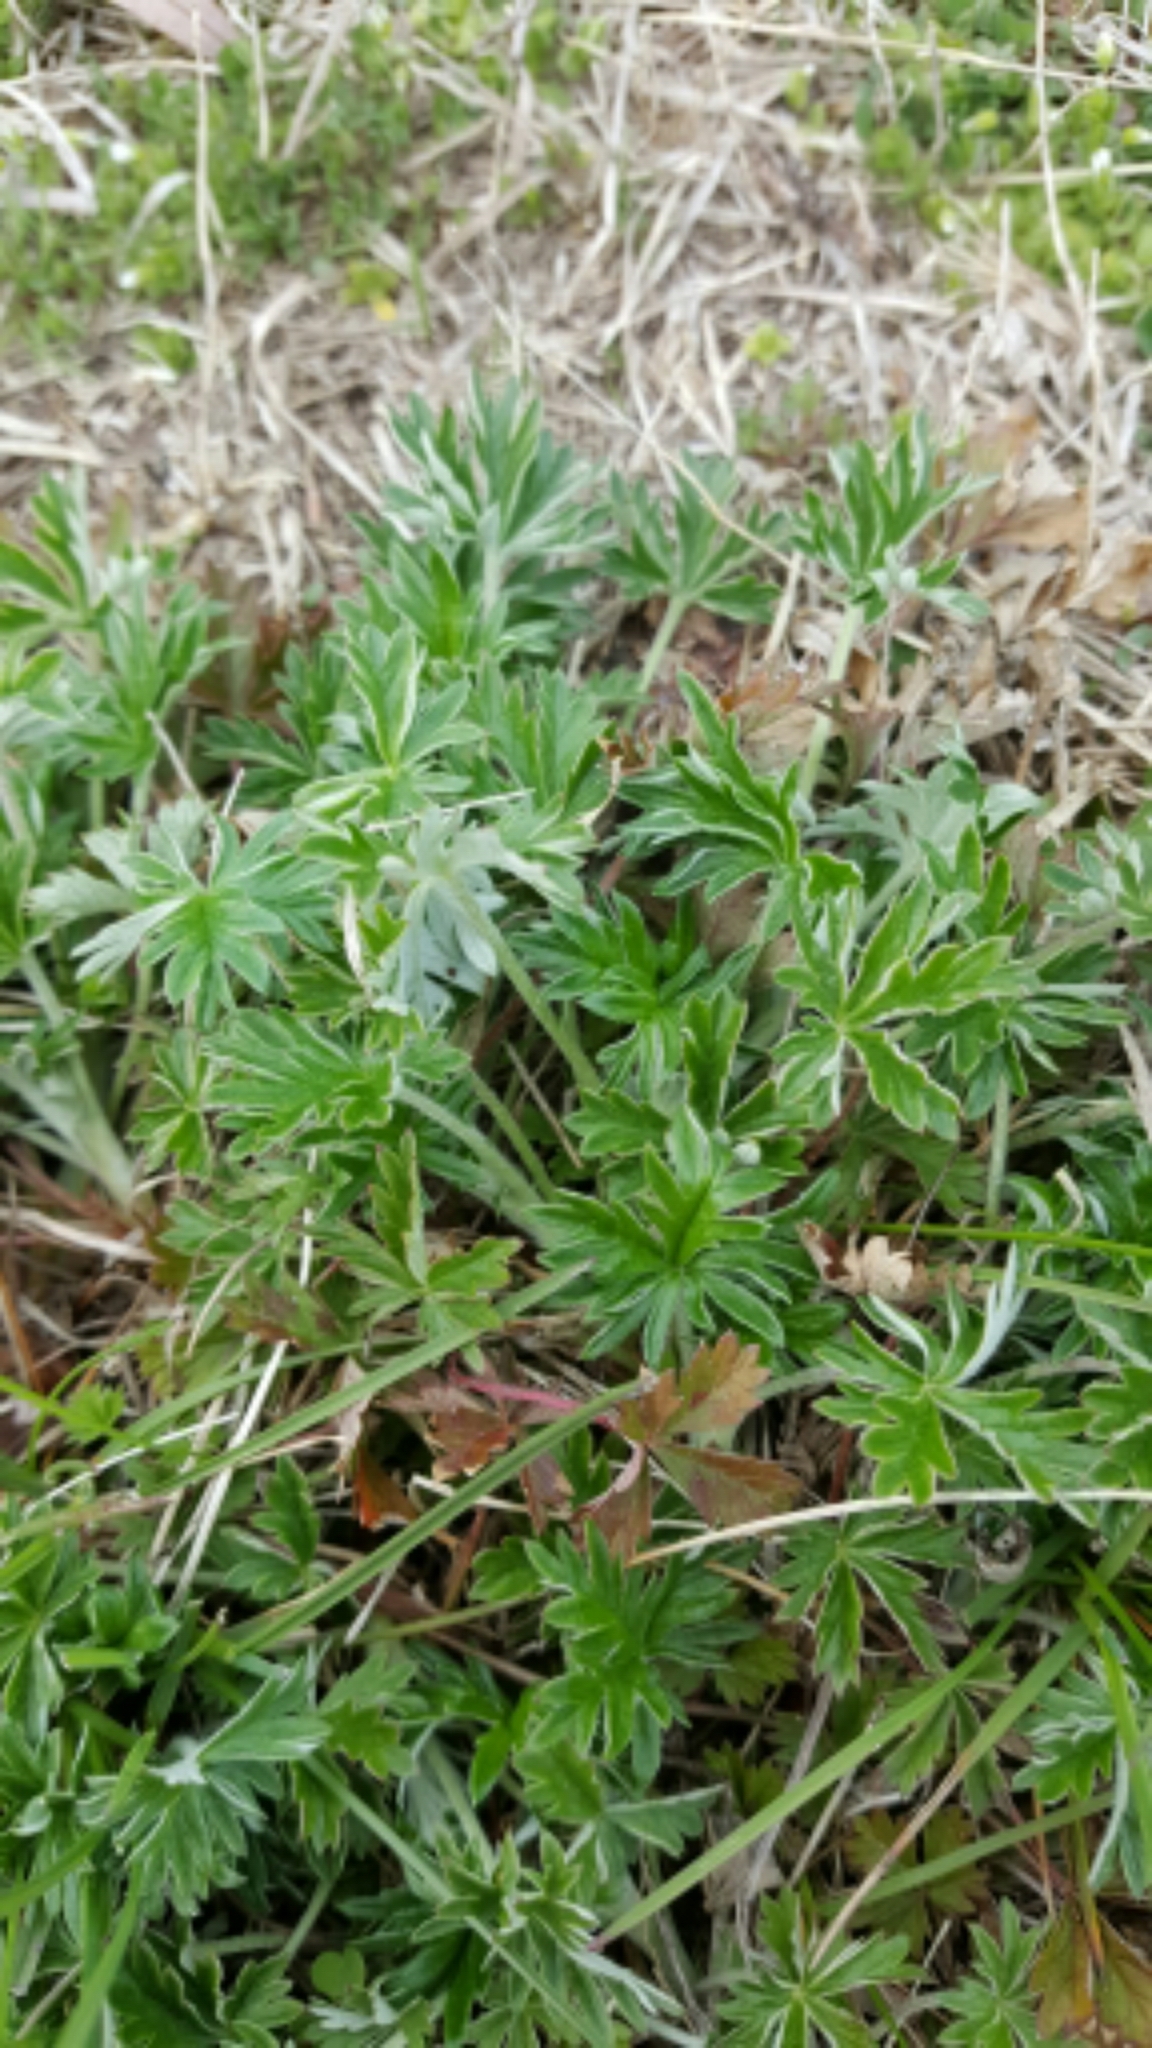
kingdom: Plantae
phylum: Tracheophyta
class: Magnoliopsida
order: Rosales
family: Rosaceae
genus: Potentilla
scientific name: Potentilla argentea
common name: Hoary cinquefoil
